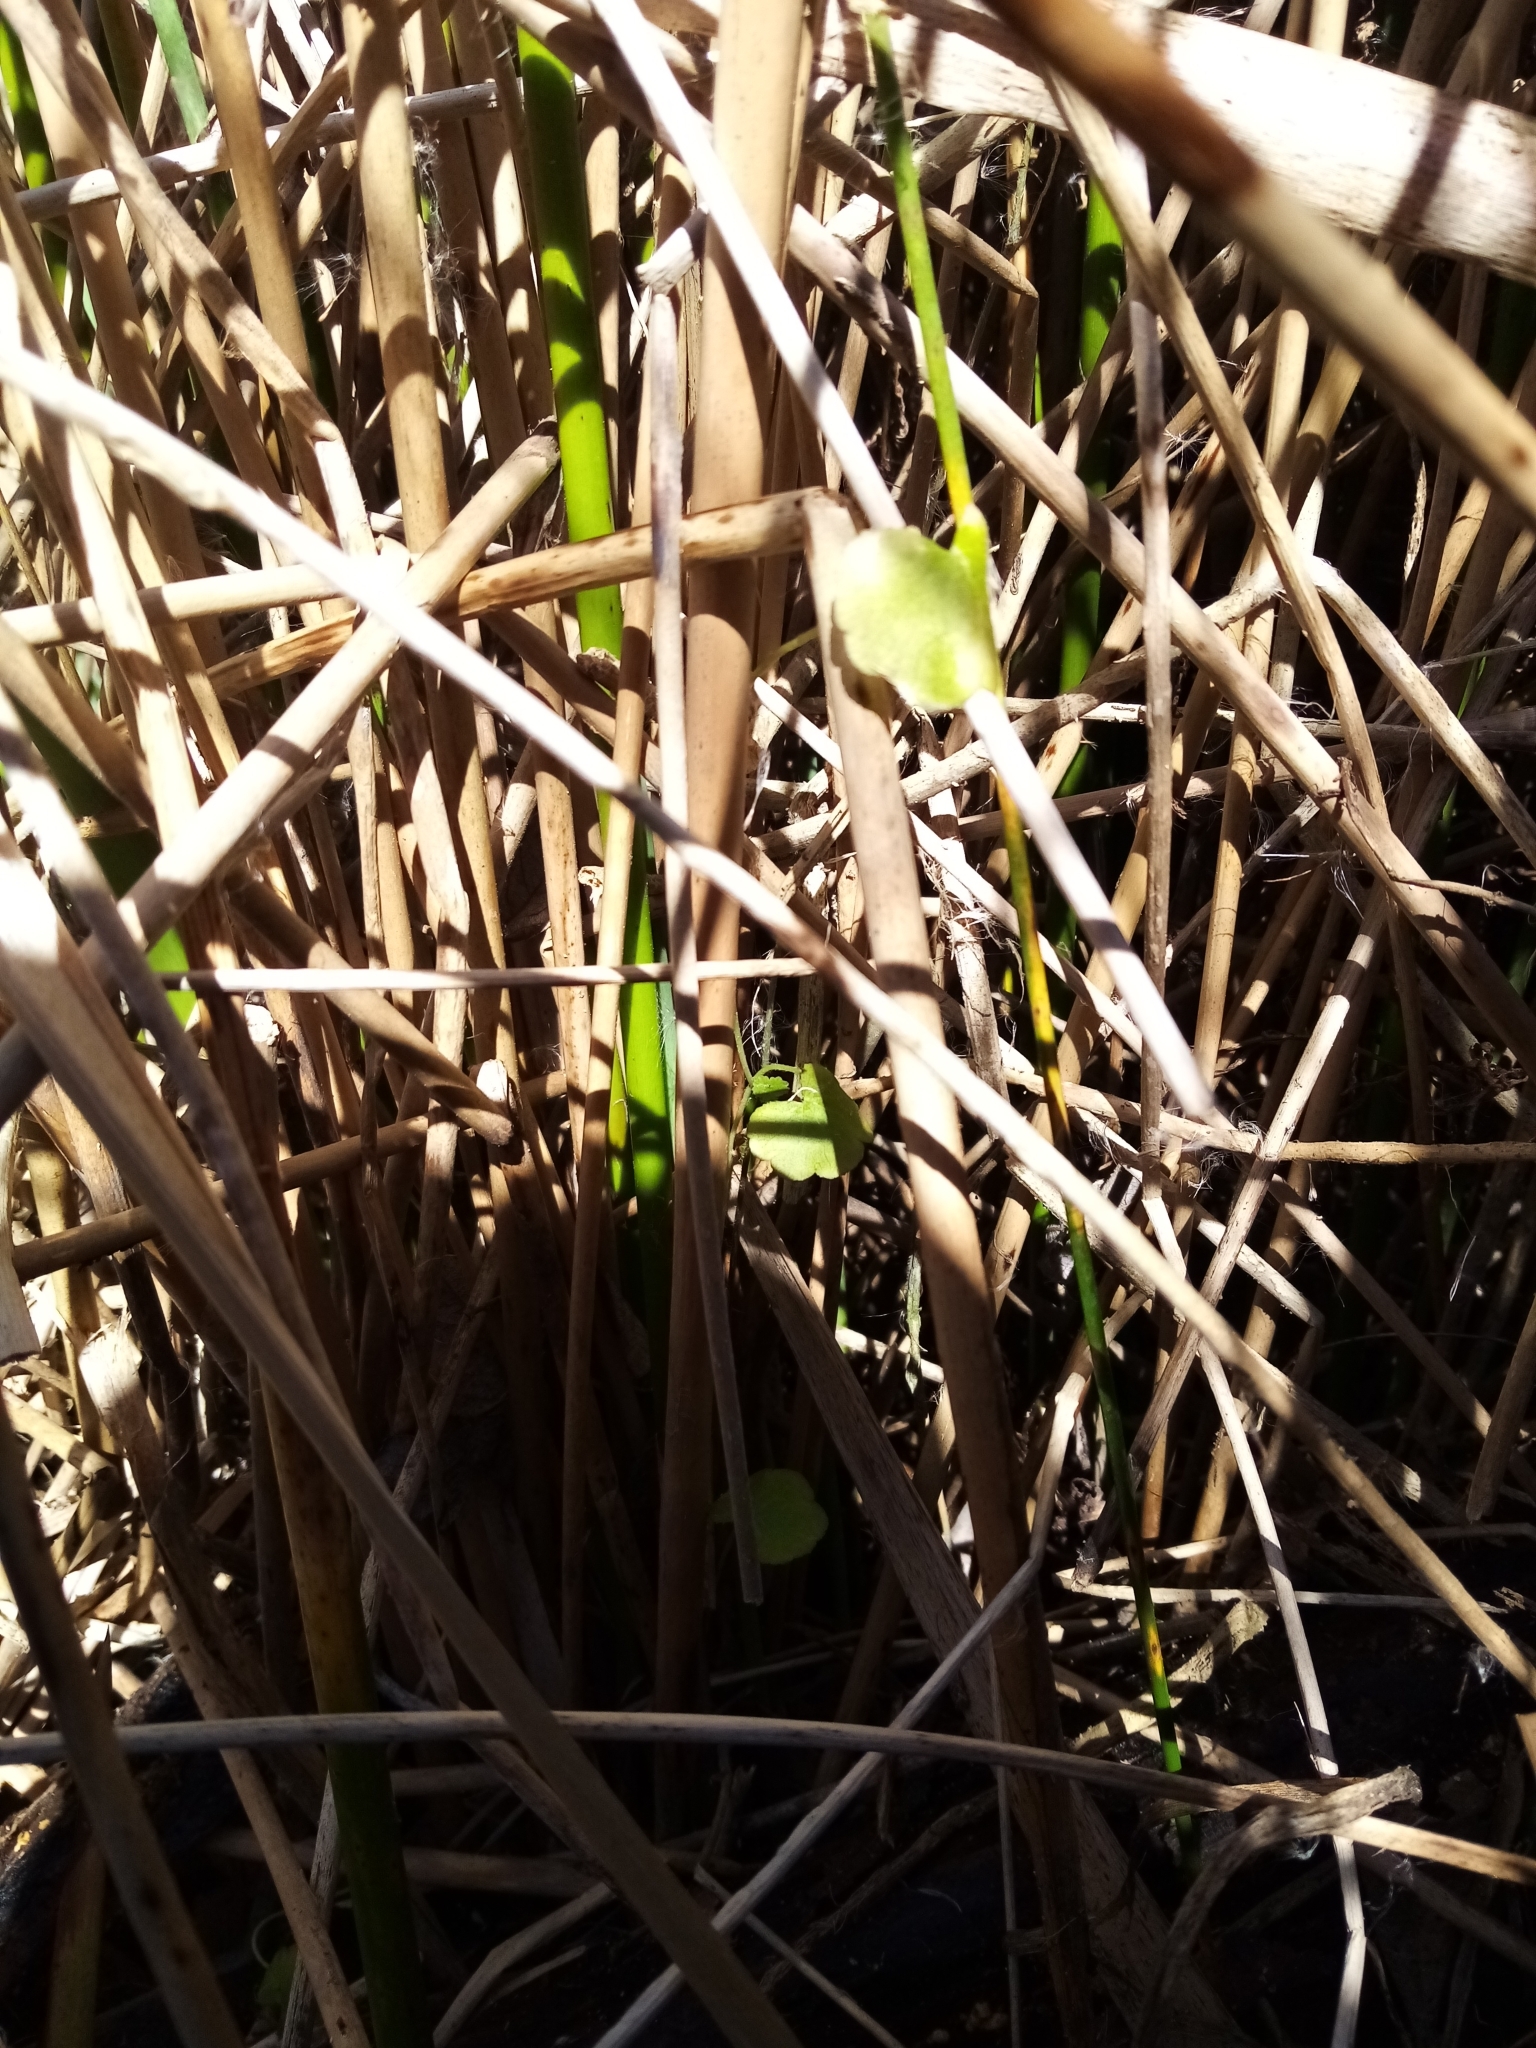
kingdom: Plantae
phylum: Tracheophyta
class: Magnoliopsida
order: Apiales
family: Araliaceae
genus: Hydrocotyle
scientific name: Hydrocotyle novae-zeelandiae
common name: New zealand pennywort
